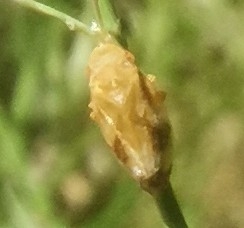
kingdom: Animalia
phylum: Arthropoda
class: Insecta
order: Hemiptera
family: Aphrophoridae
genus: Philaenus
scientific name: Philaenus spumarius
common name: Meadow spittlebug
